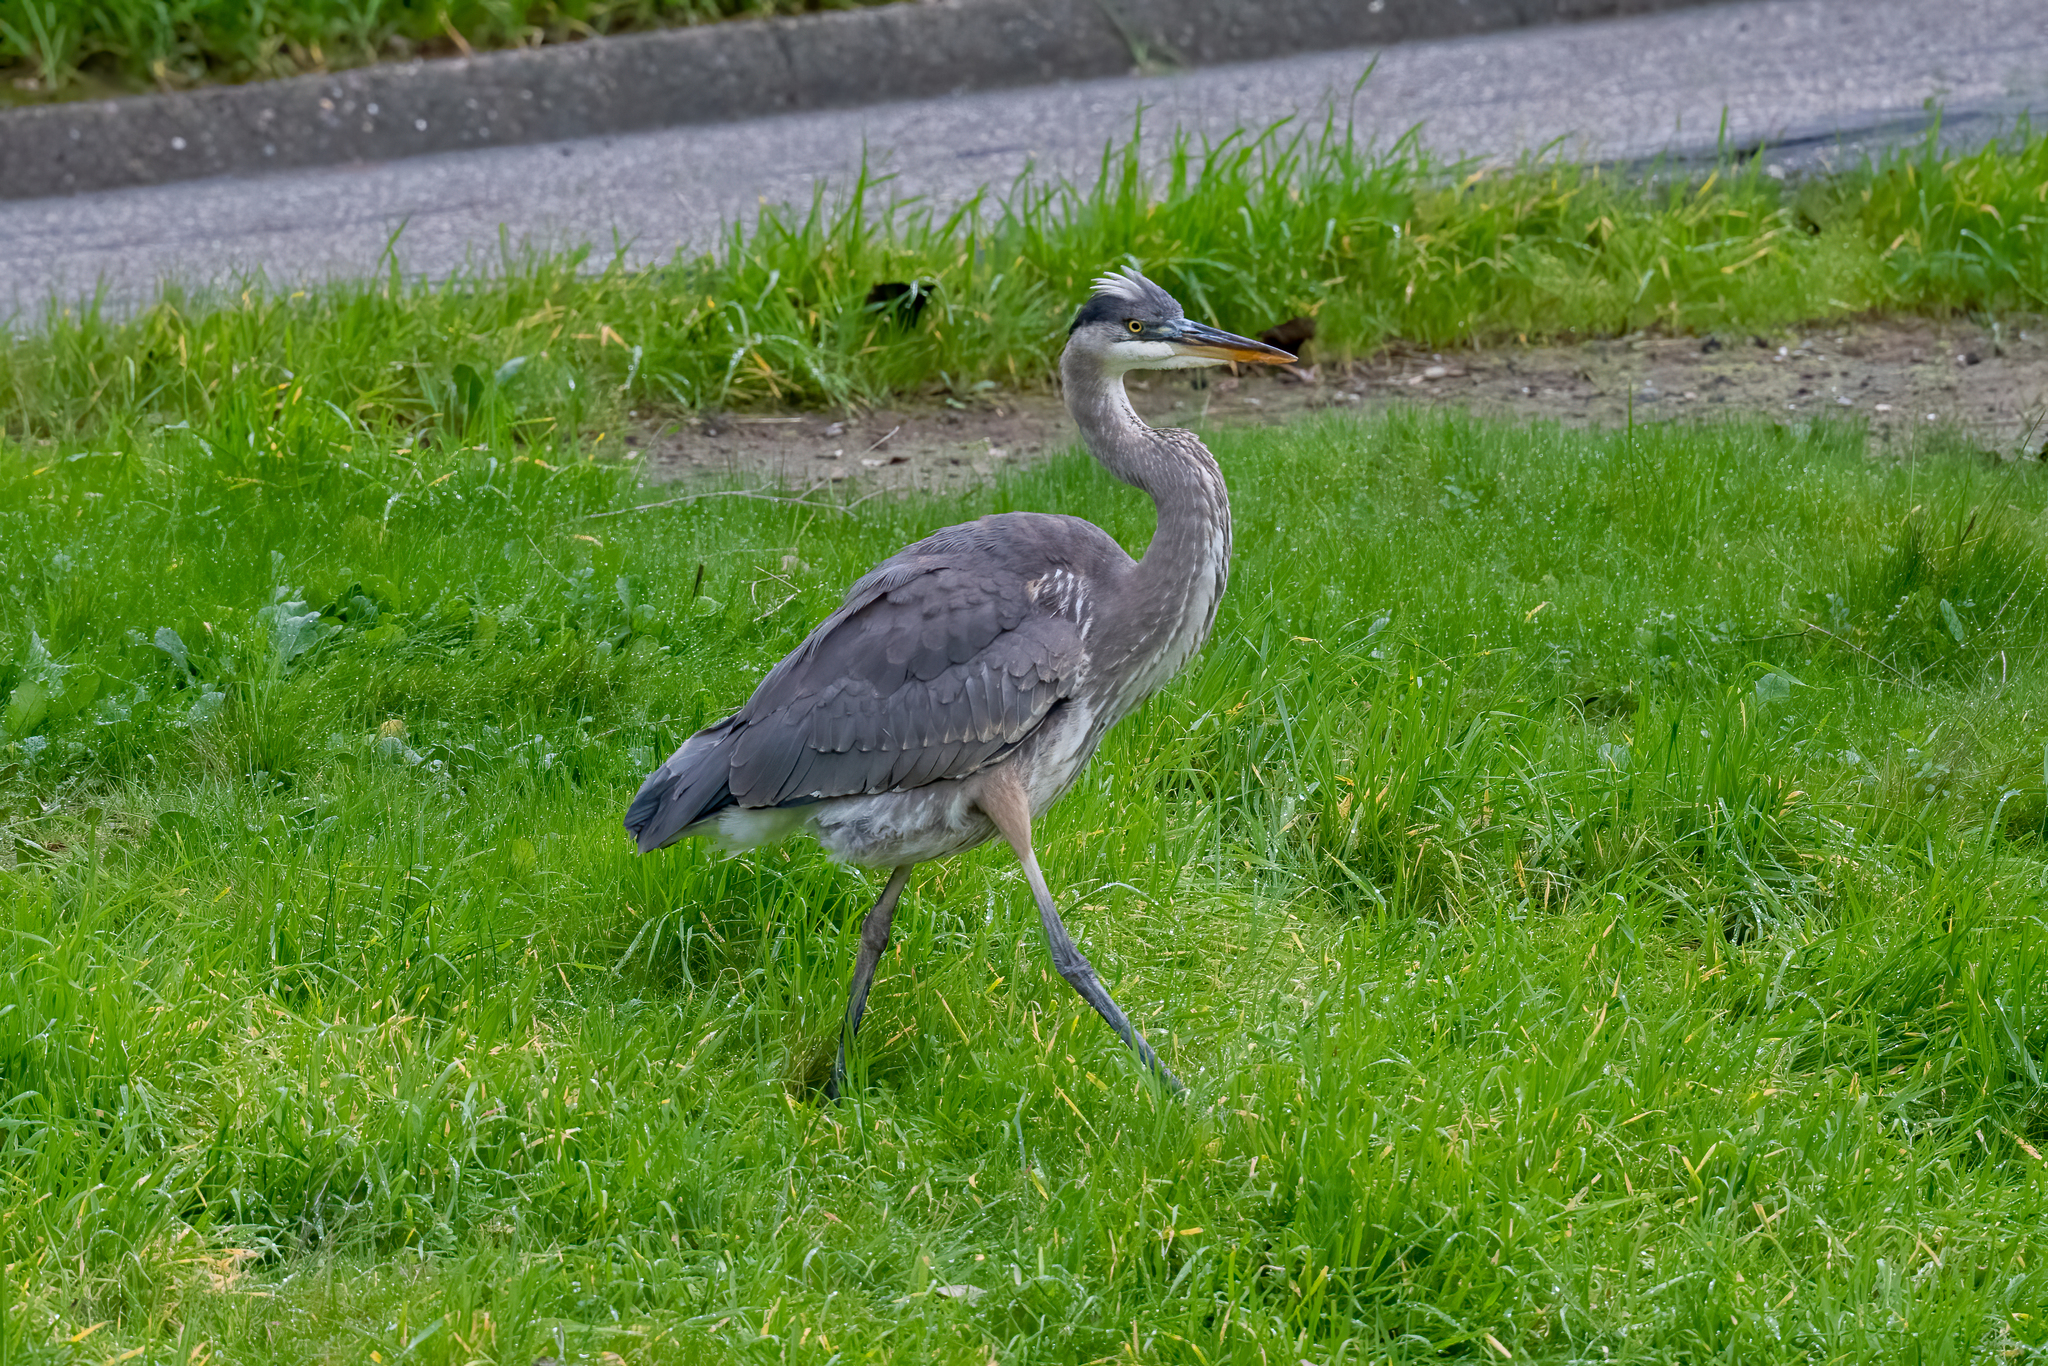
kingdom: Animalia
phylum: Chordata
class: Aves
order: Pelecaniformes
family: Ardeidae
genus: Ardea
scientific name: Ardea herodias
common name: Great blue heron
